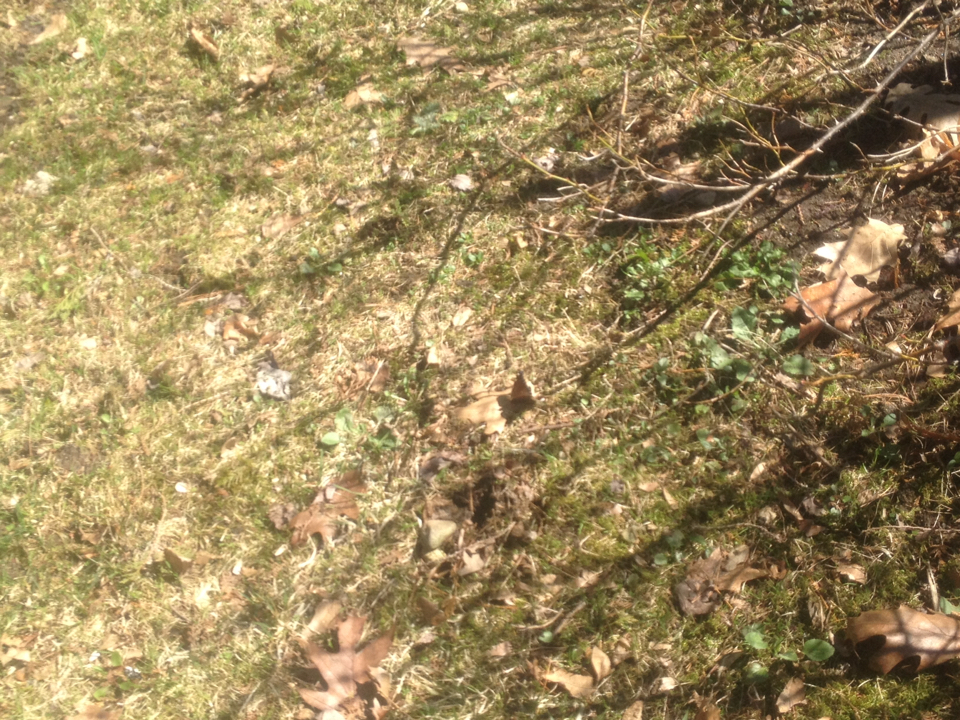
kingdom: Animalia
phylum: Arthropoda
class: Insecta
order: Lepidoptera
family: Nymphalidae
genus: Nymphalis
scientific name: Nymphalis antiopa
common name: Camberwell beauty
